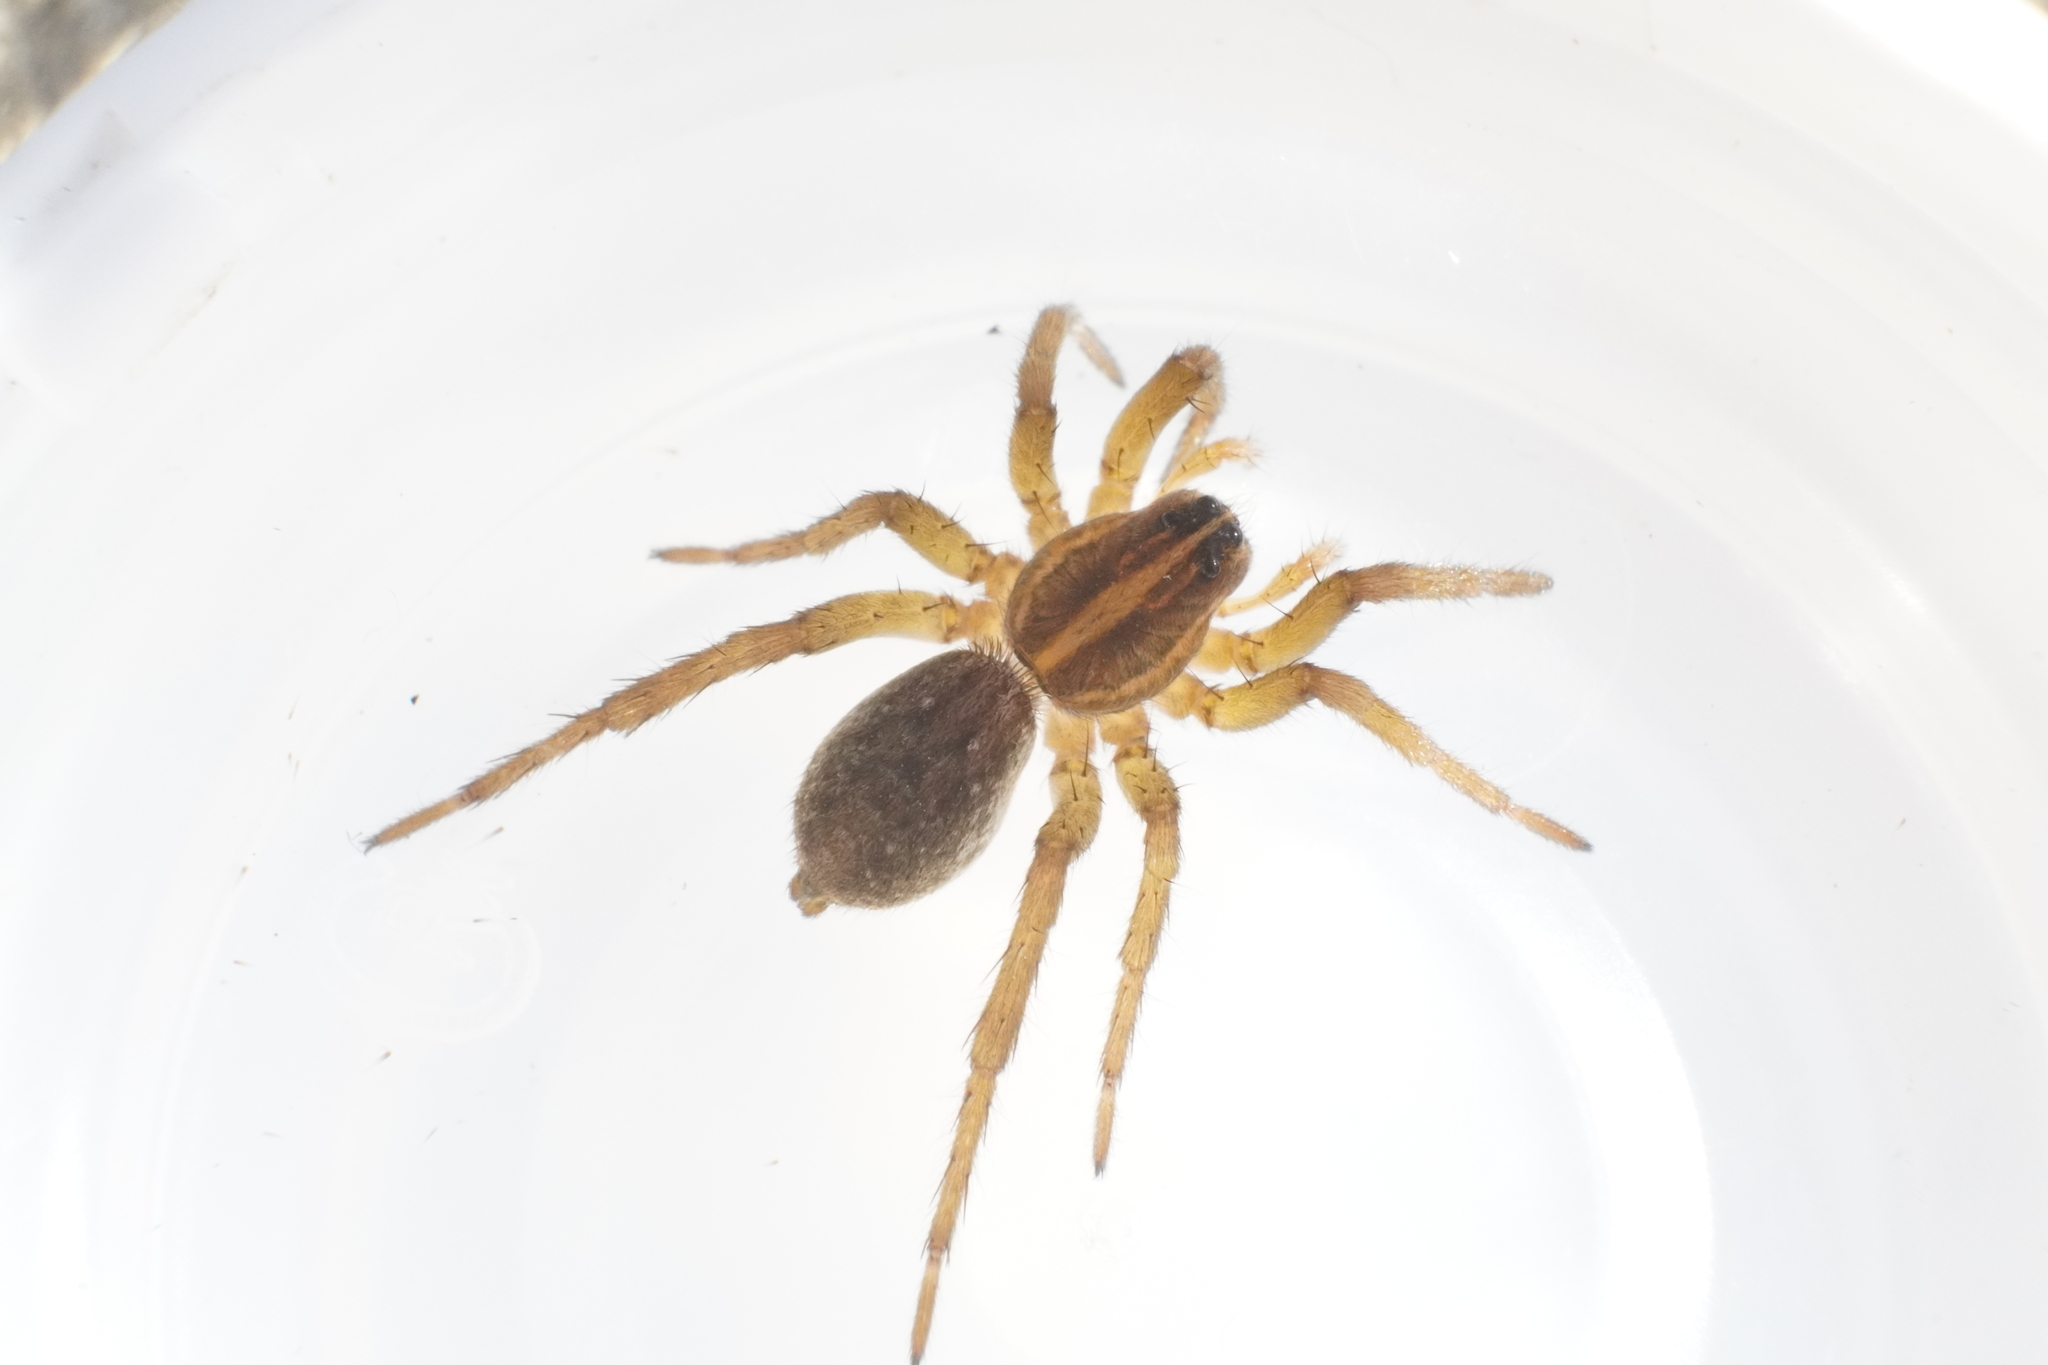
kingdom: Animalia
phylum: Arthropoda
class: Arachnida
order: Araneae
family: Lycosidae
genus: Tigrosa
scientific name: Tigrosa helluo
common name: Wetland giant wolf spider
